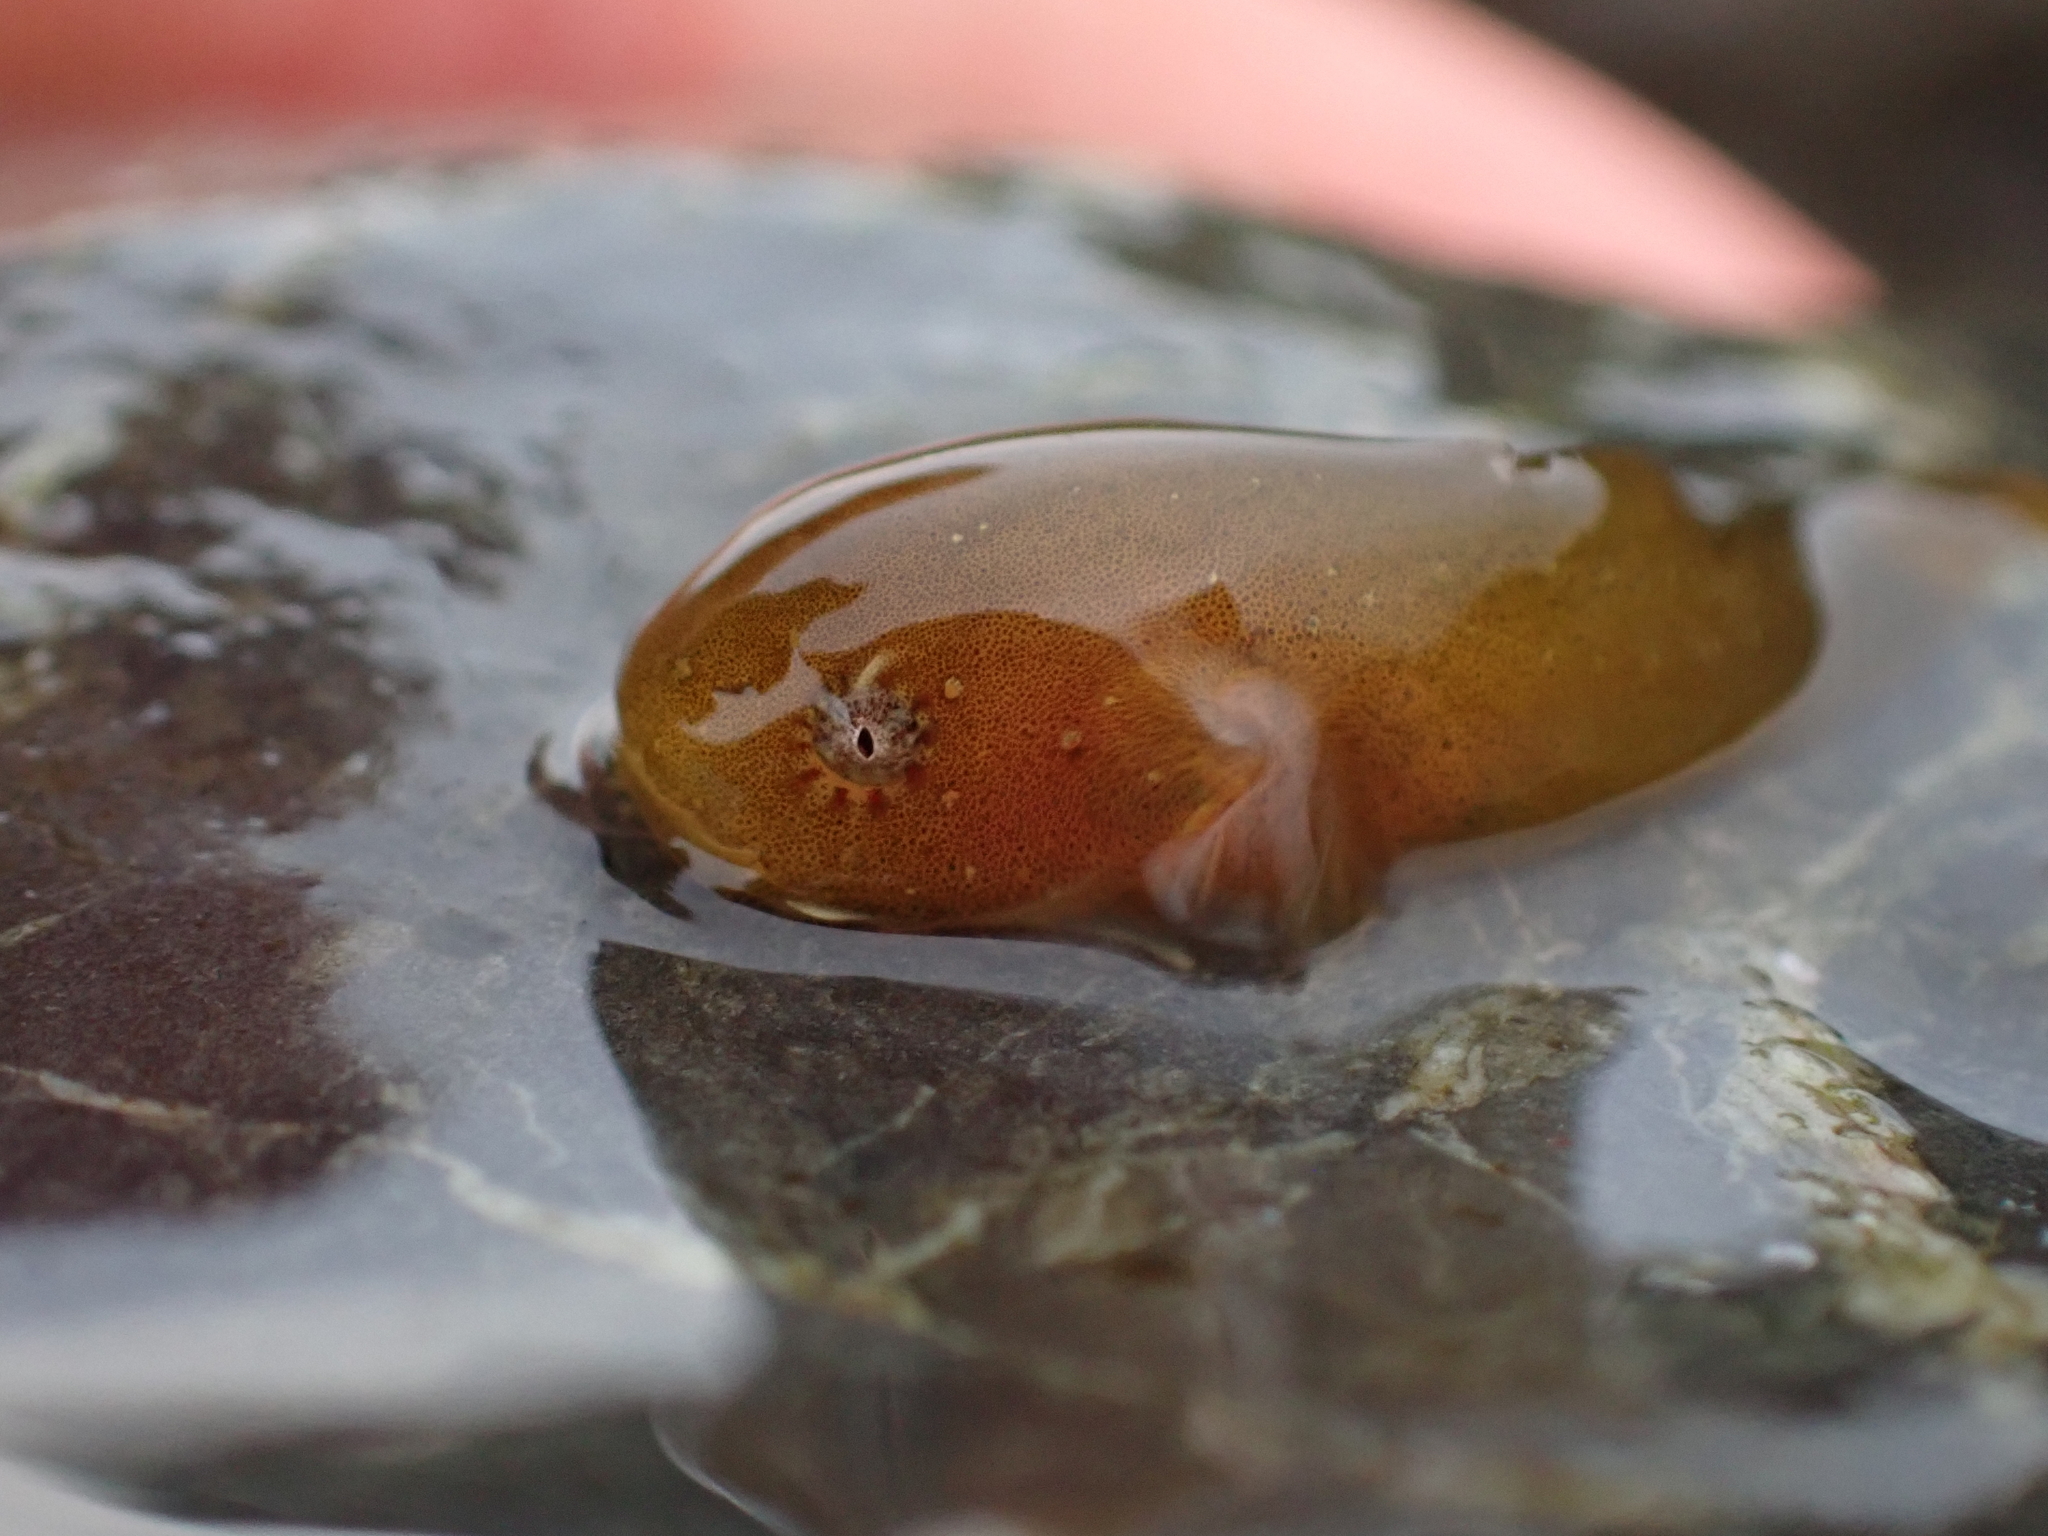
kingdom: Animalia
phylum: Chordata
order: Scorpaeniformes
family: Liparidae
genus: Liparis
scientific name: Liparis florae
